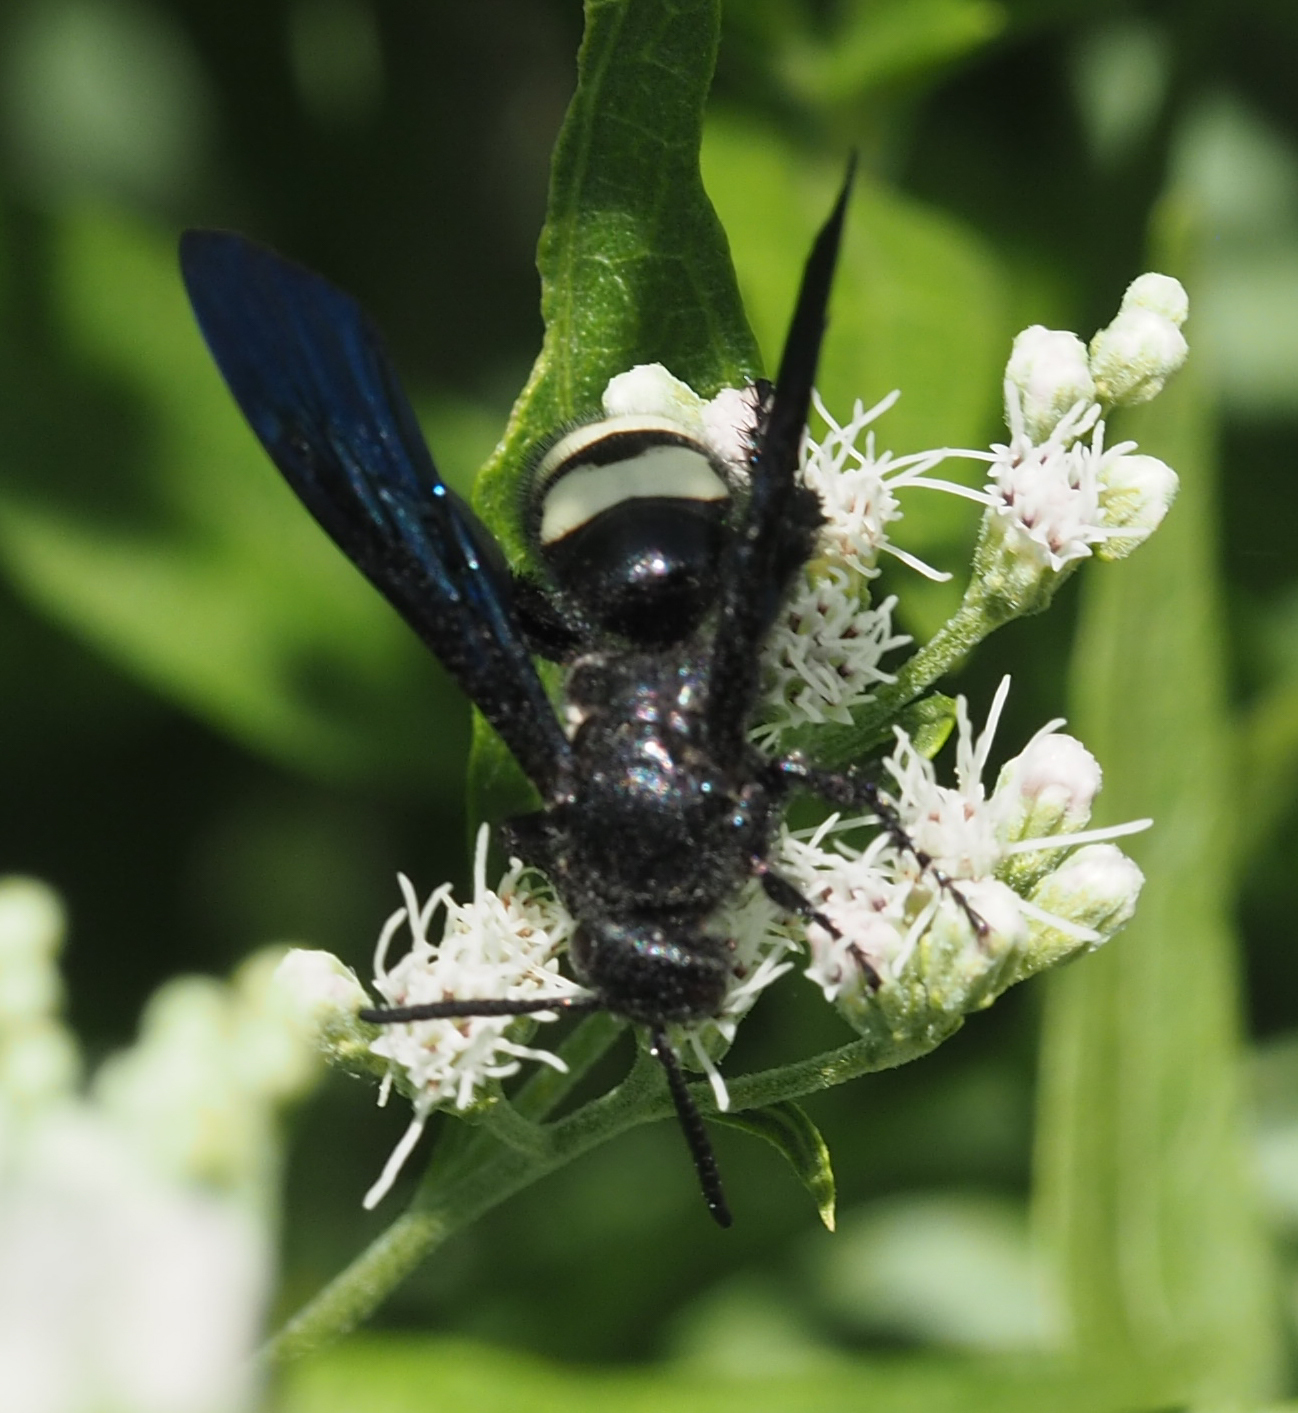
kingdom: Animalia
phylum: Arthropoda
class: Insecta
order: Hymenoptera
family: Scoliidae
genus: Scolia
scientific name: Scolia bicincta
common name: Double-banded scoliid wasp
